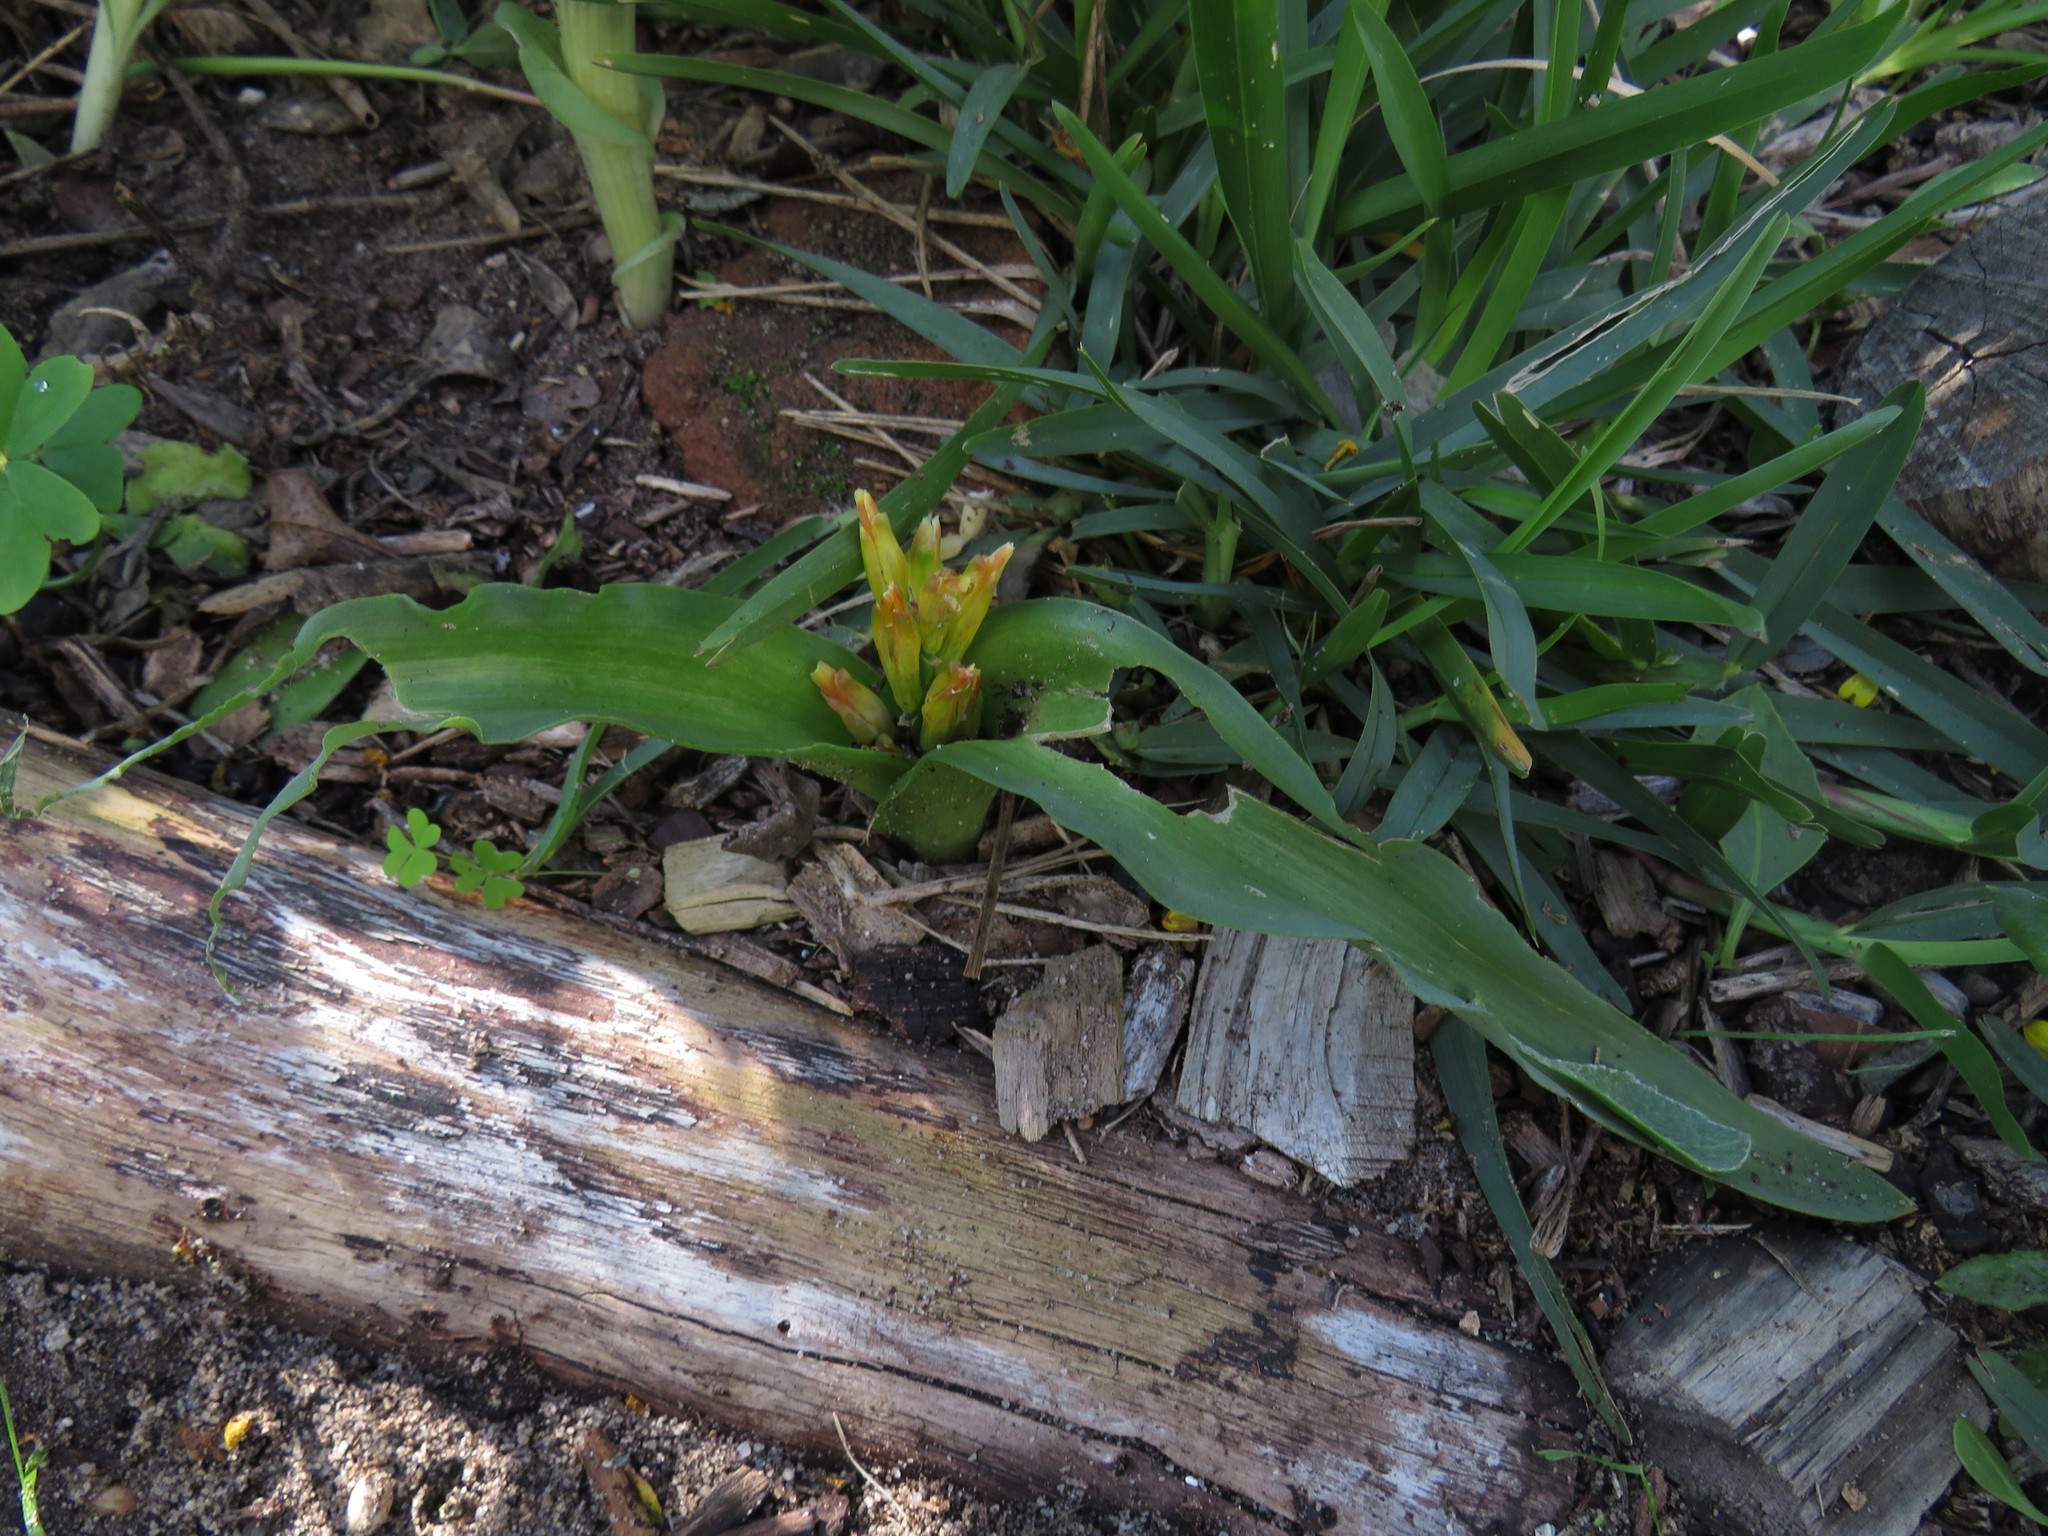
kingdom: Plantae
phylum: Tracheophyta
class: Liliopsida
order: Asparagales
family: Asparagaceae
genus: Lachenalia
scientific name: Lachenalia reflexa
